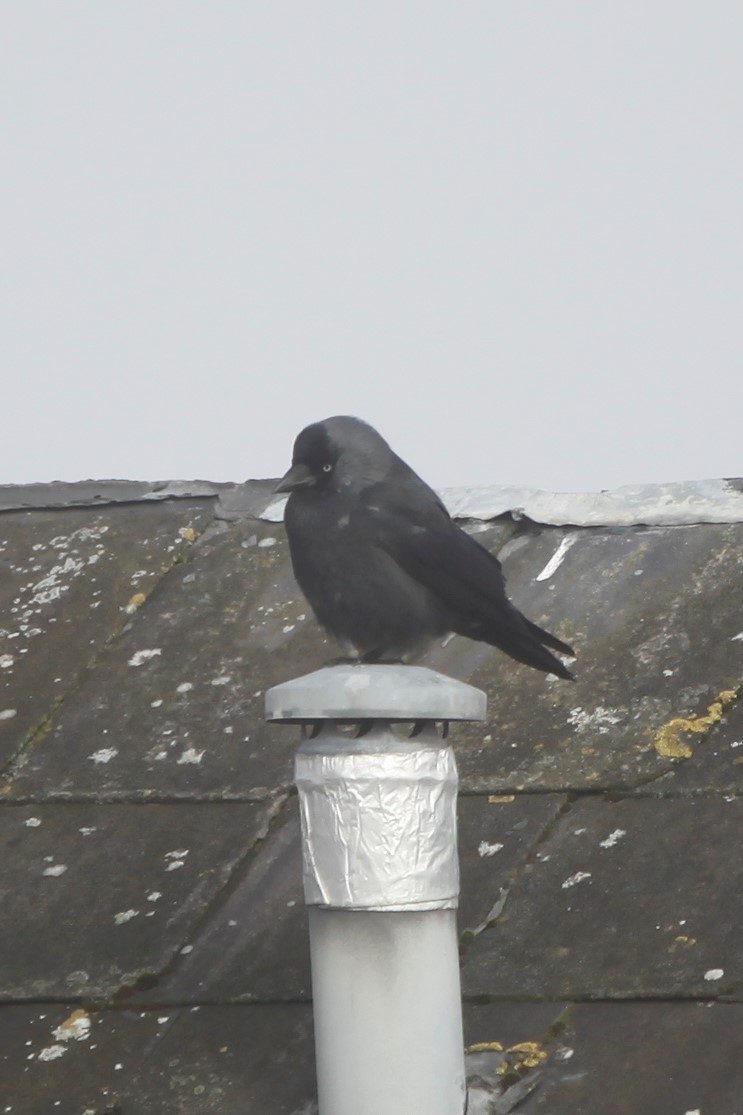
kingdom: Animalia
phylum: Chordata
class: Aves
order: Passeriformes
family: Corvidae
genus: Coloeus
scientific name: Coloeus monedula
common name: Western jackdaw
